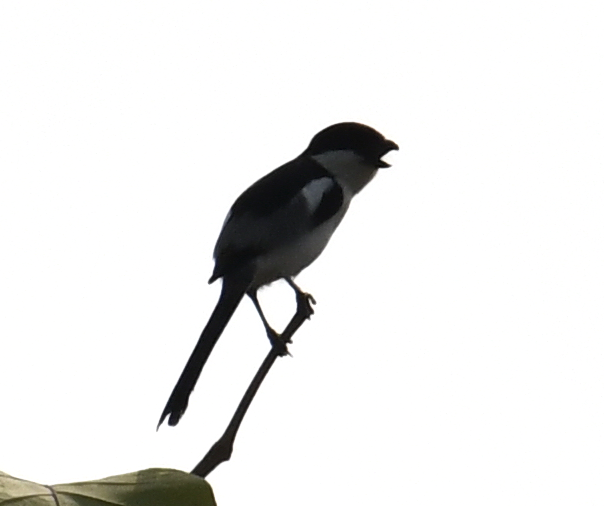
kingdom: Animalia
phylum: Chordata
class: Aves
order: Passeriformes
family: Laniidae
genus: Lanius
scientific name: Lanius humeralis
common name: Northern fiscal
